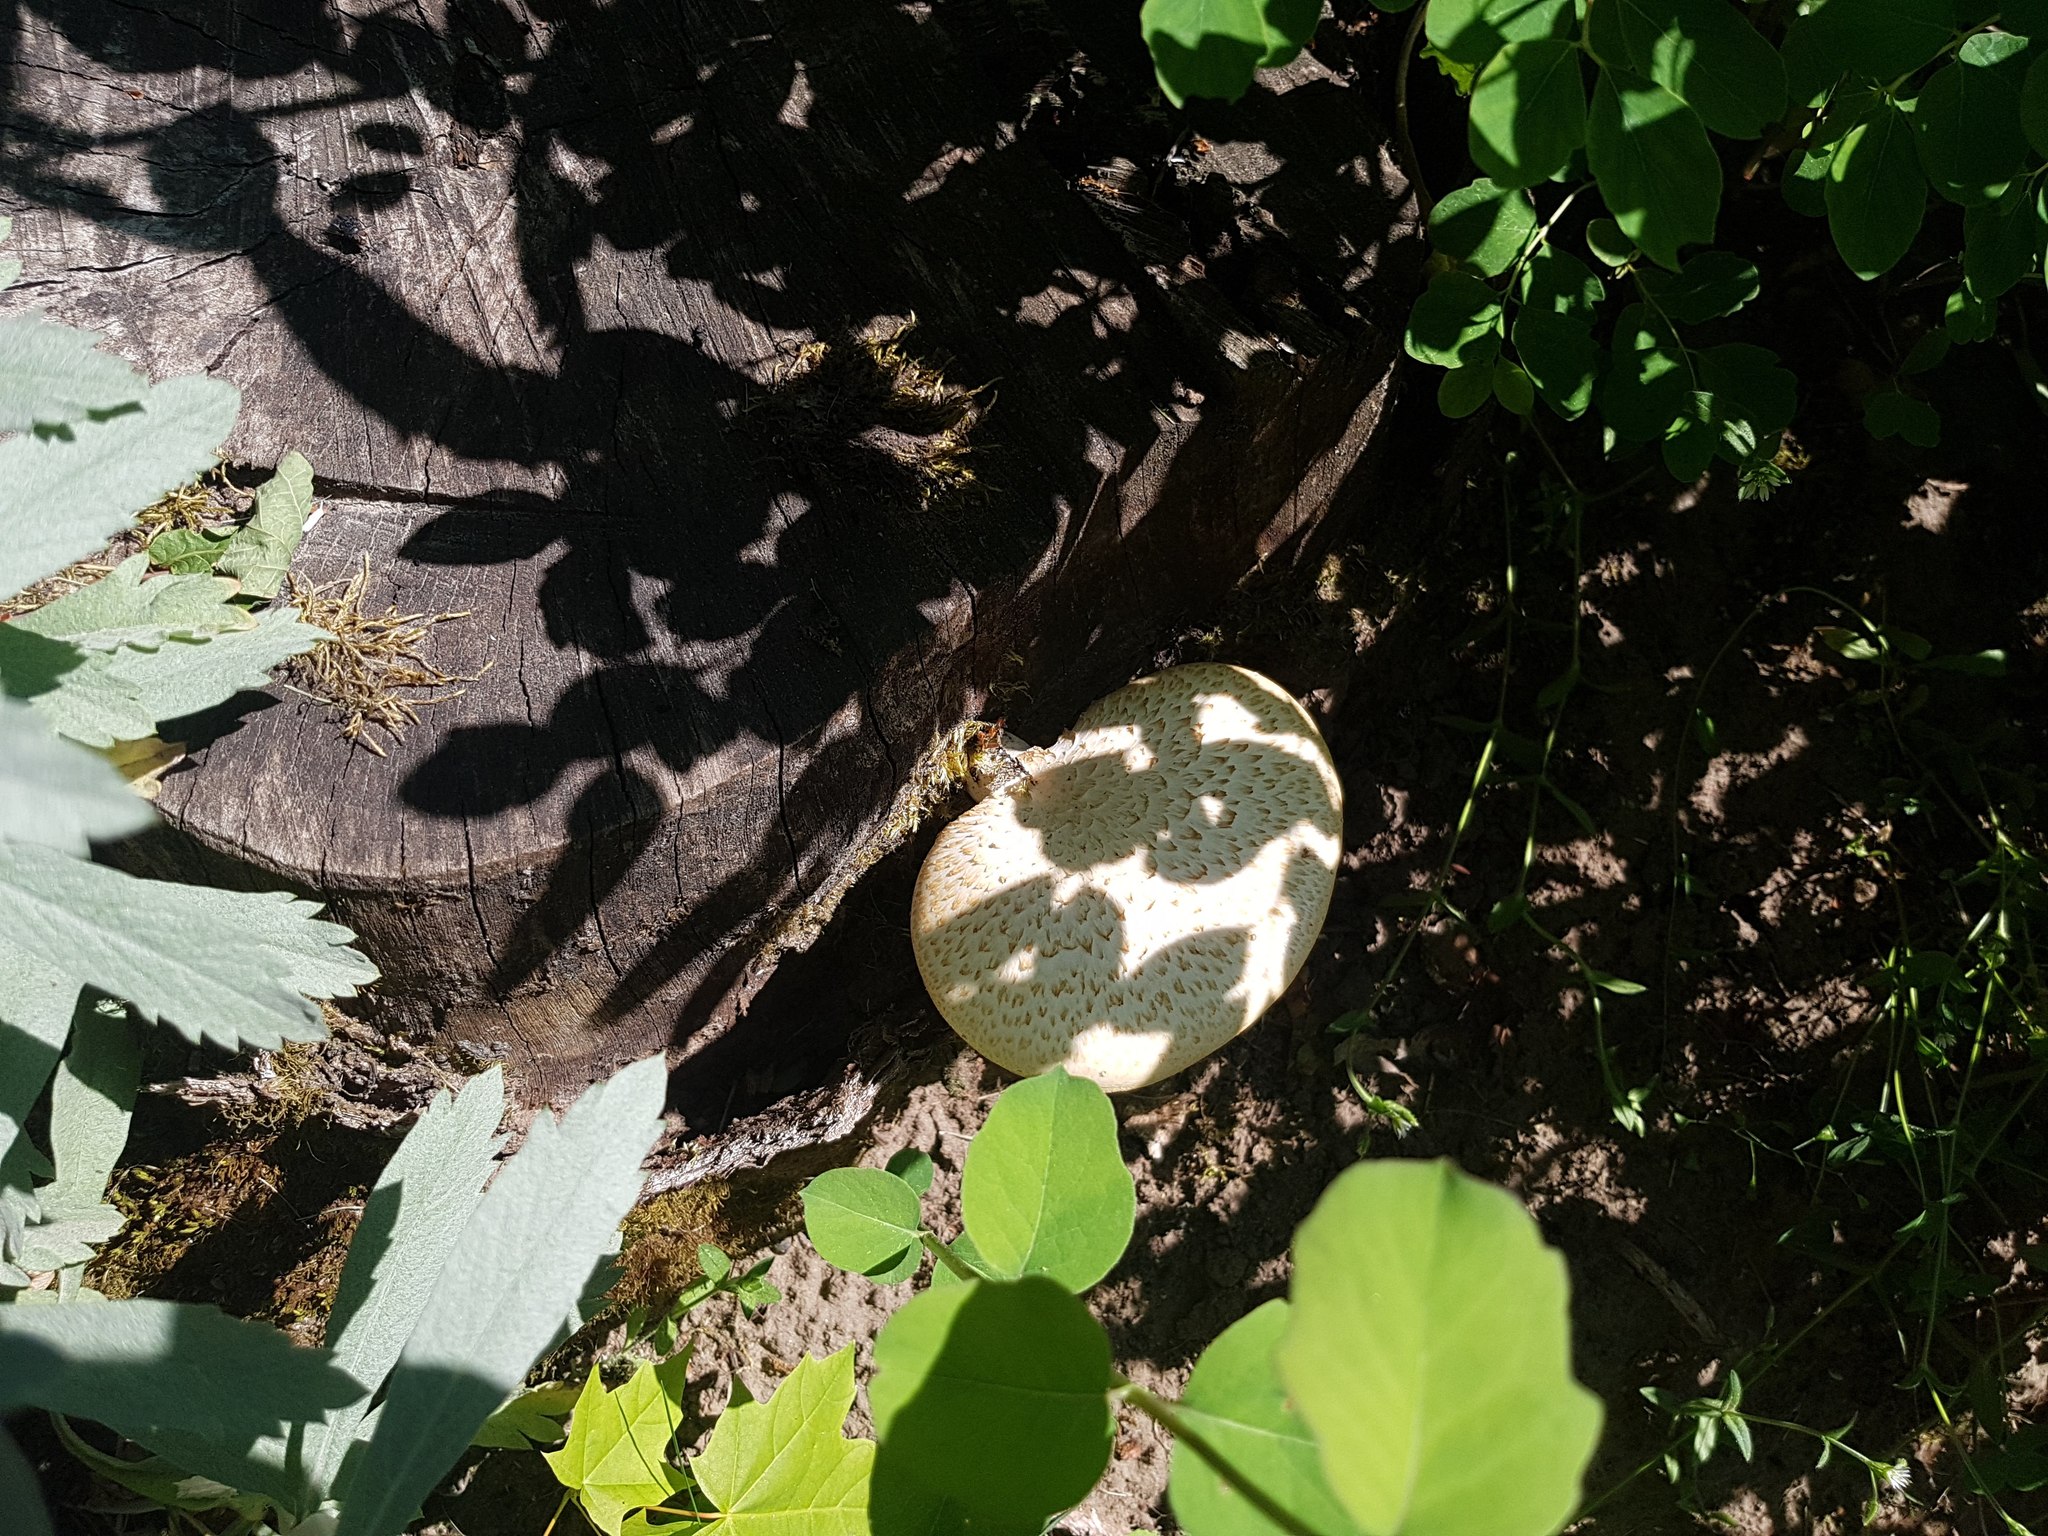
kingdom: Fungi
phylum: Basidiomycota
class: Agaricomycetes
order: Polyporales
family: Polyporaceae
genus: Cerioporus
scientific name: Cerioporus squamosus
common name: Dryad's saddle
